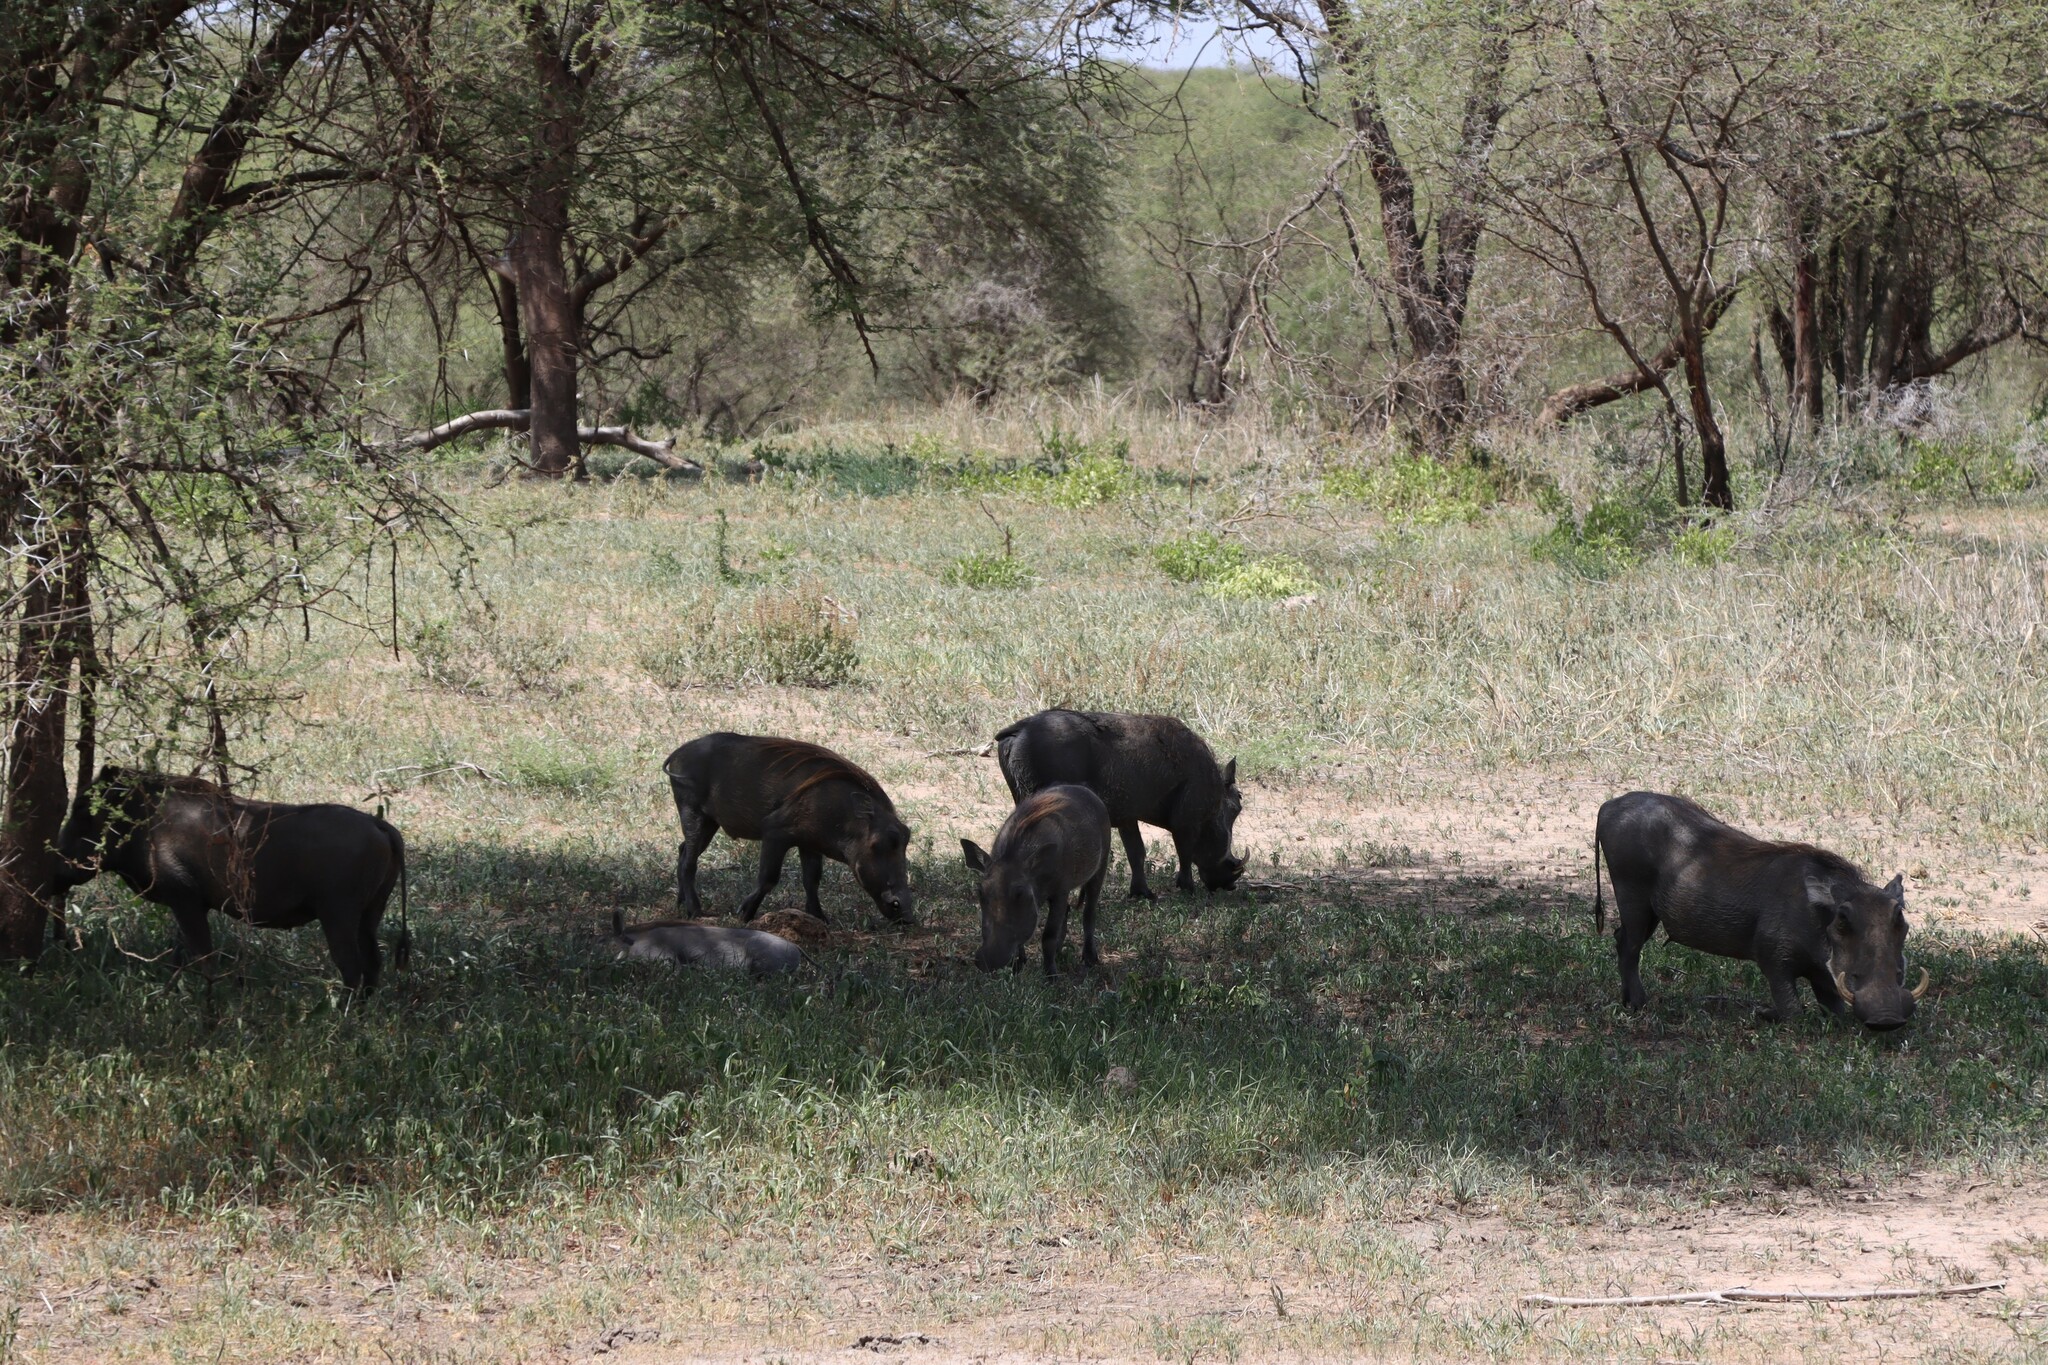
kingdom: Animalia
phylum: Chordata
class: Mammalia
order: Artiodactyla
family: Suidae
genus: Phacochoerus
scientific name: Phacochoerus africanus
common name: Common warthog
